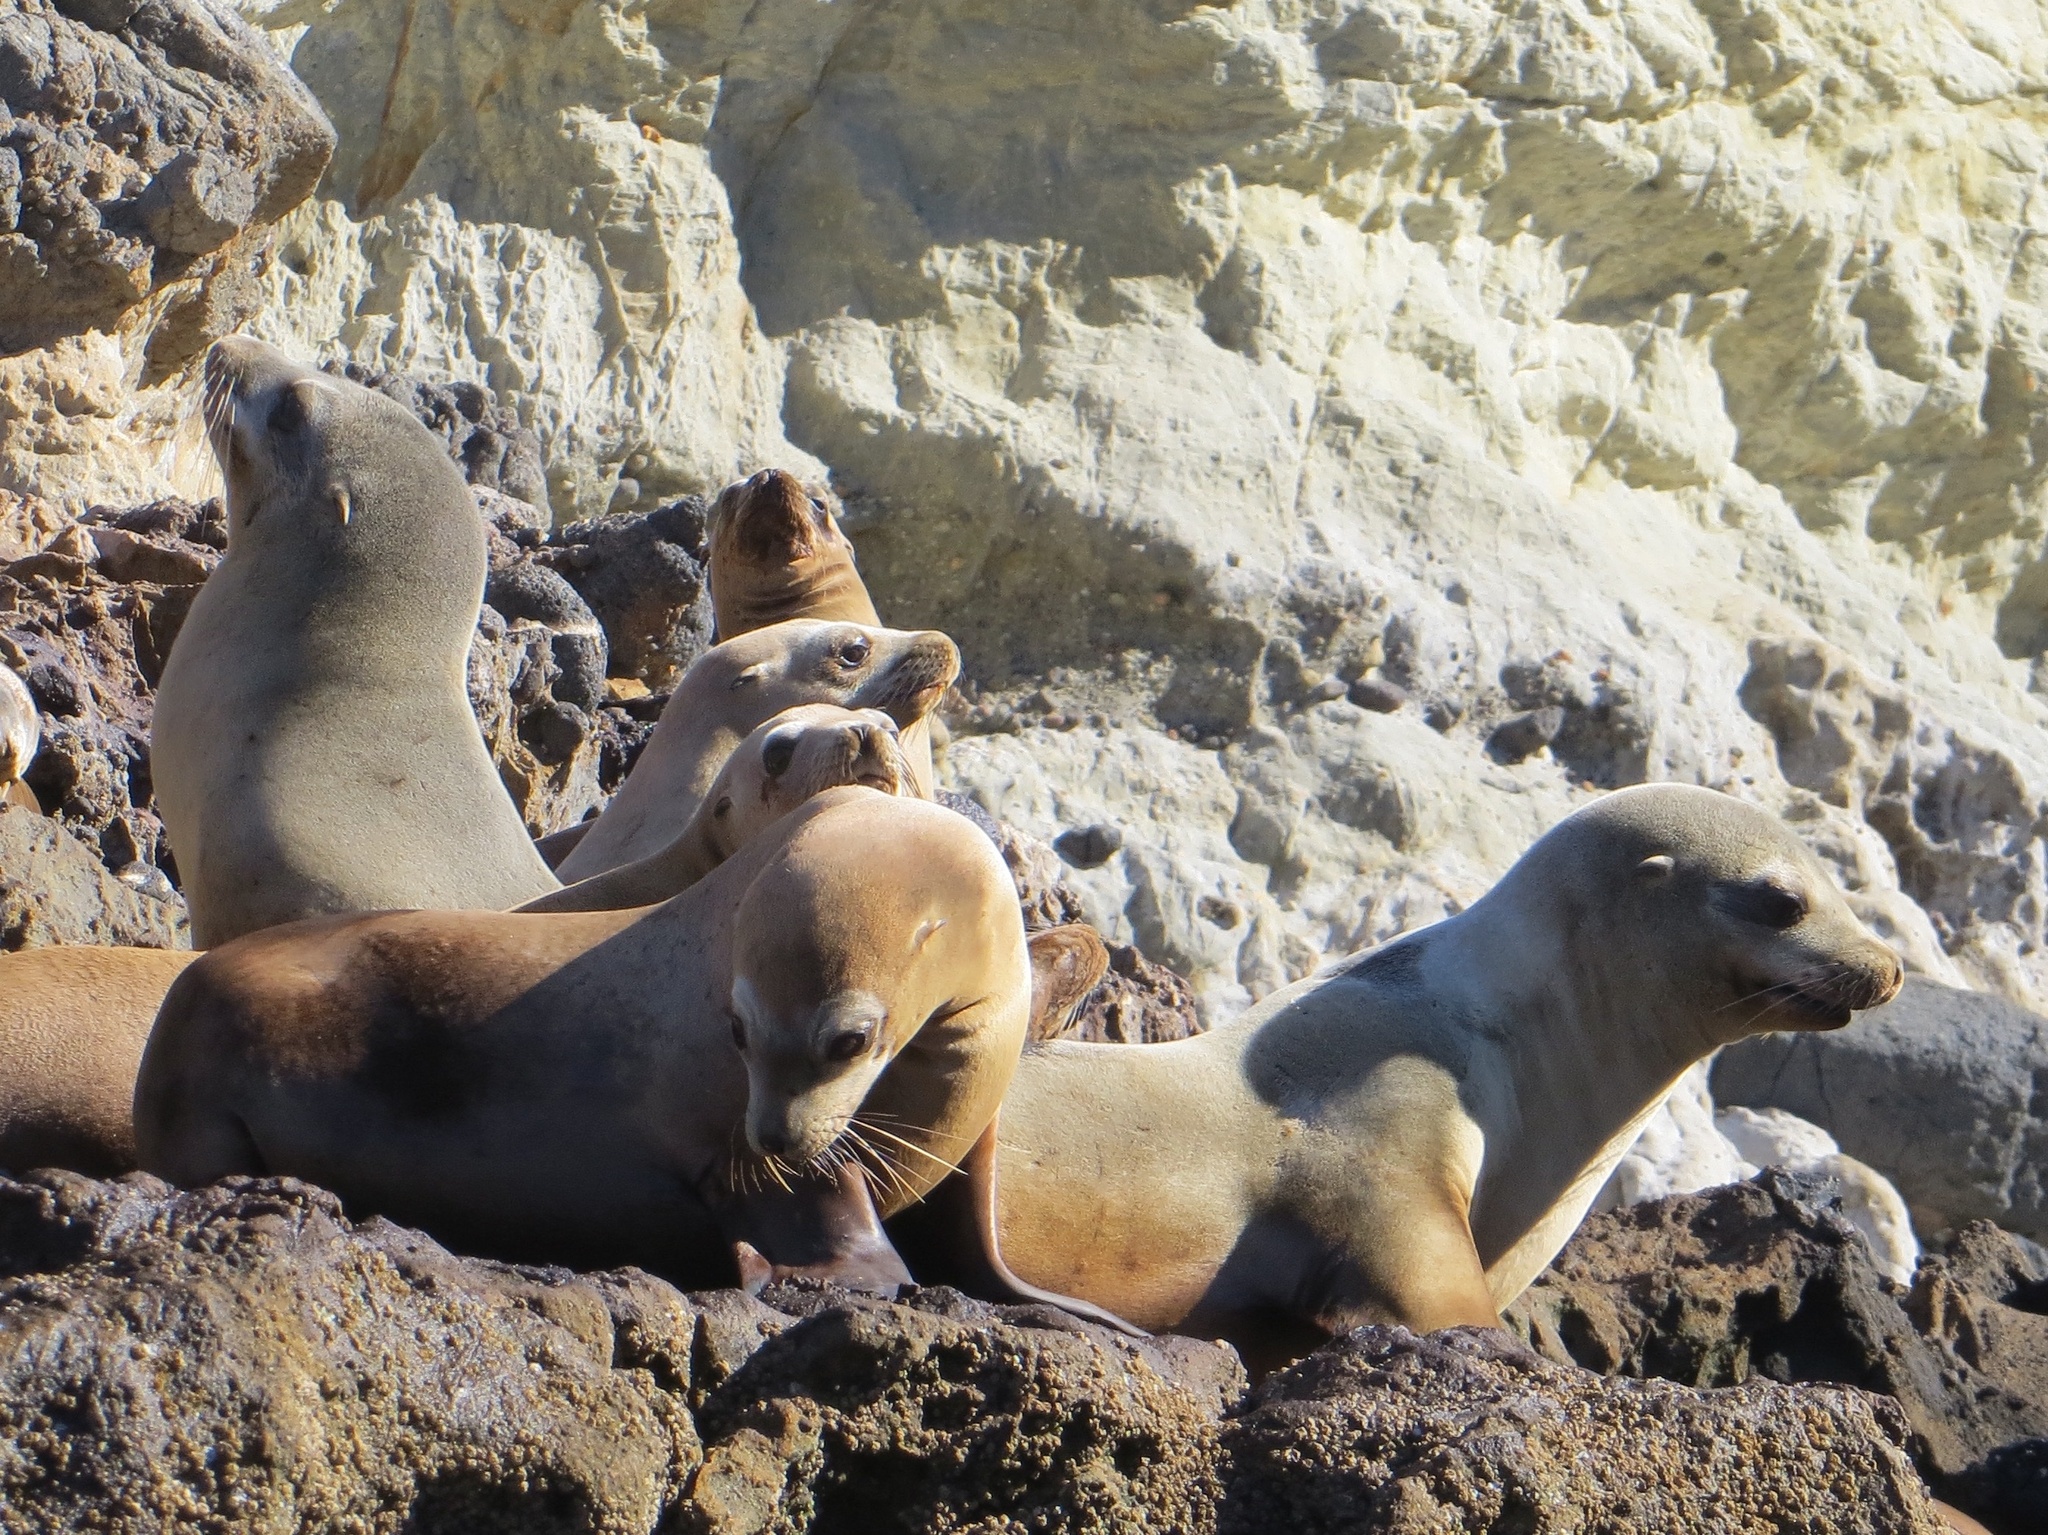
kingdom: Animalia
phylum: Chordata
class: Mammalia
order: Carnivora
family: Otariidae
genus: Zalophus
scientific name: Zalophus californianus
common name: California sea lion
